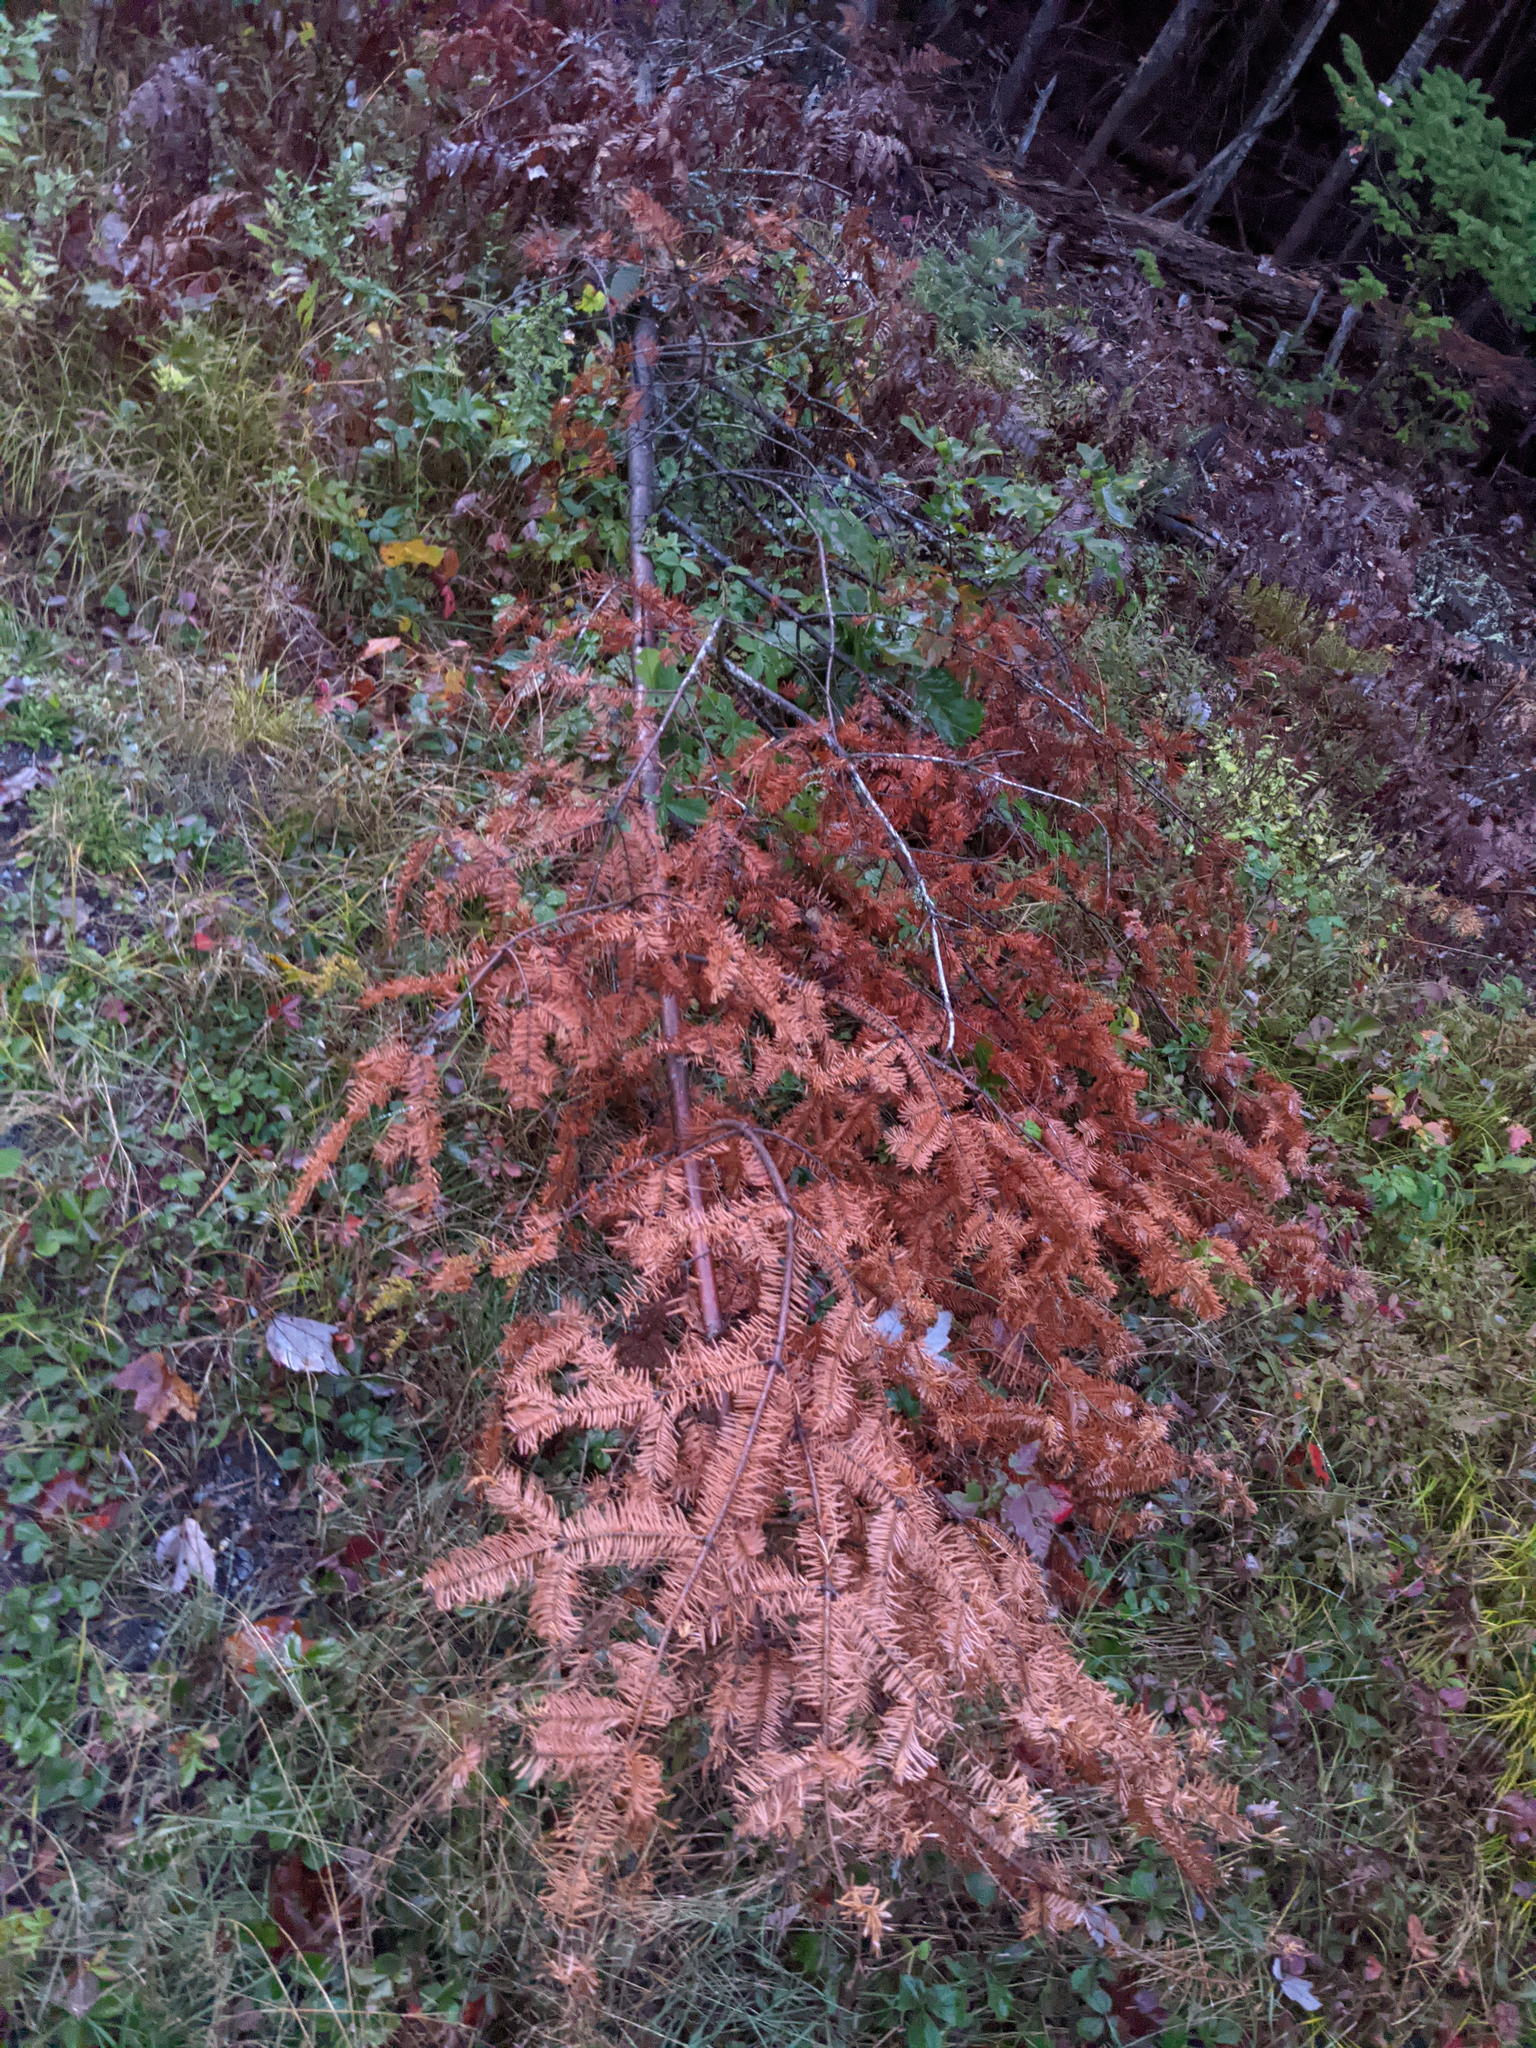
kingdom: Plantae
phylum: Tracheophyta
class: Pinopsida
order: Pinales
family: Pinaceae
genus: Abies
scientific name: Abies balsamea
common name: Balsam fir
